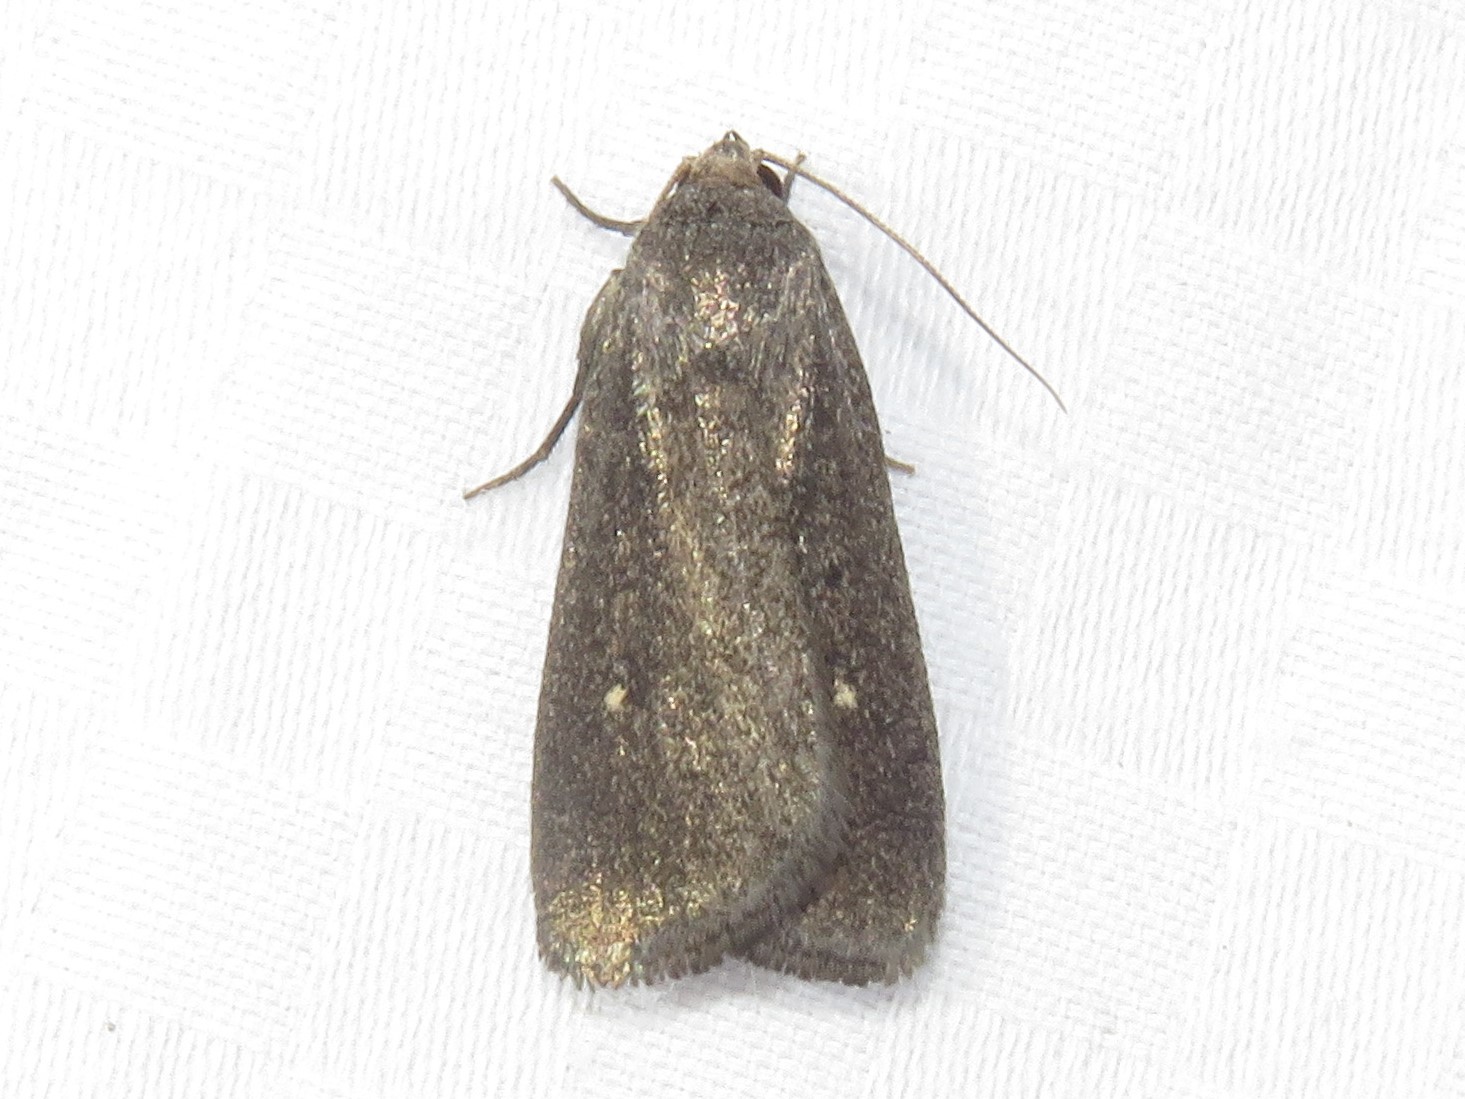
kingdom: Animalia
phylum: Arthropoda
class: Insecta
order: Lepidoptera
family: Noctuidae
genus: Proxenus
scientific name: Proxenus miranda
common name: Miranda moth
